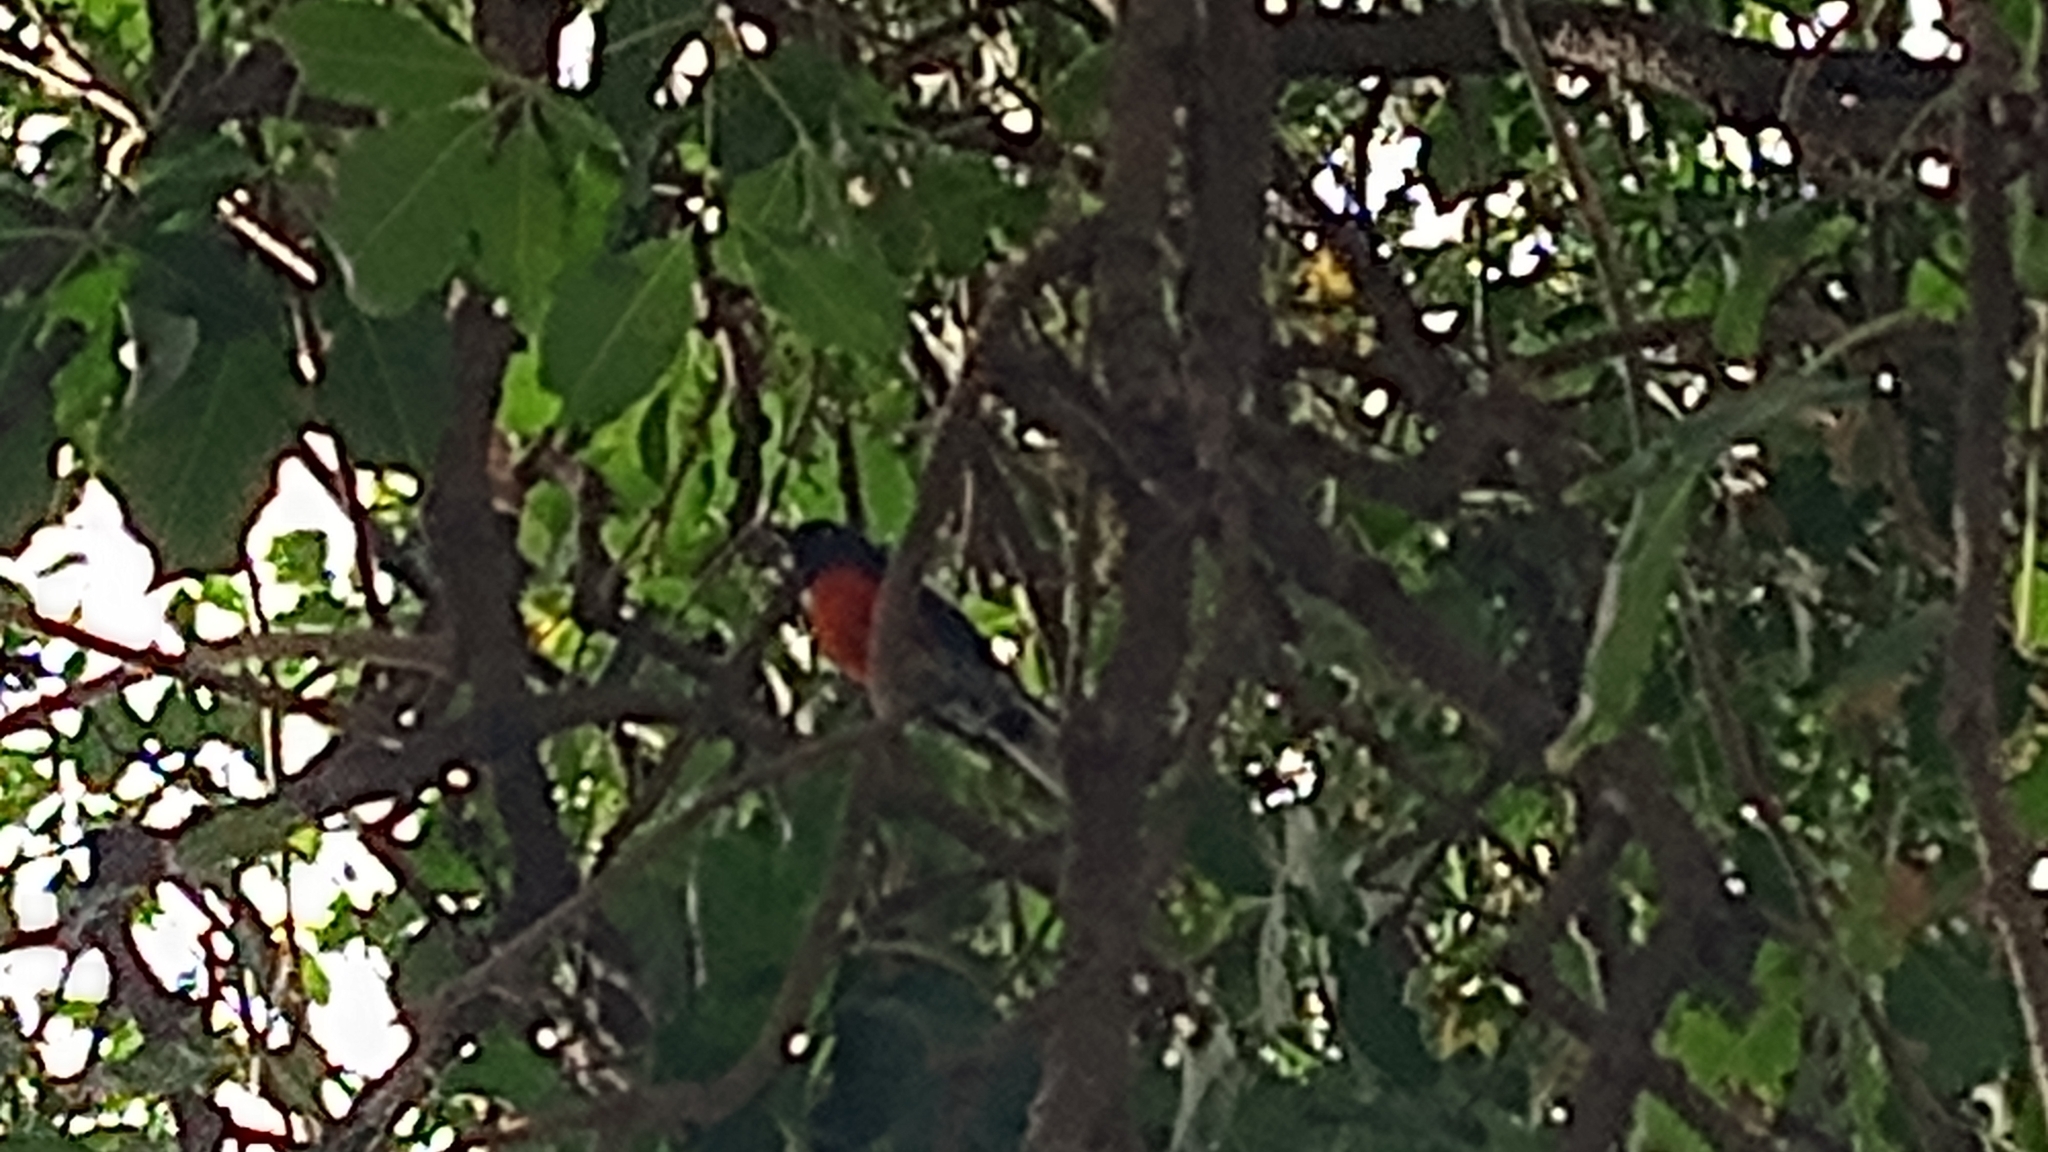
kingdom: Animalia
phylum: Chordata
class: Aves
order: Passeriformes
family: Parulidae
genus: Myioborus
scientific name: Myioborus pictus
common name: Painted whitestart
